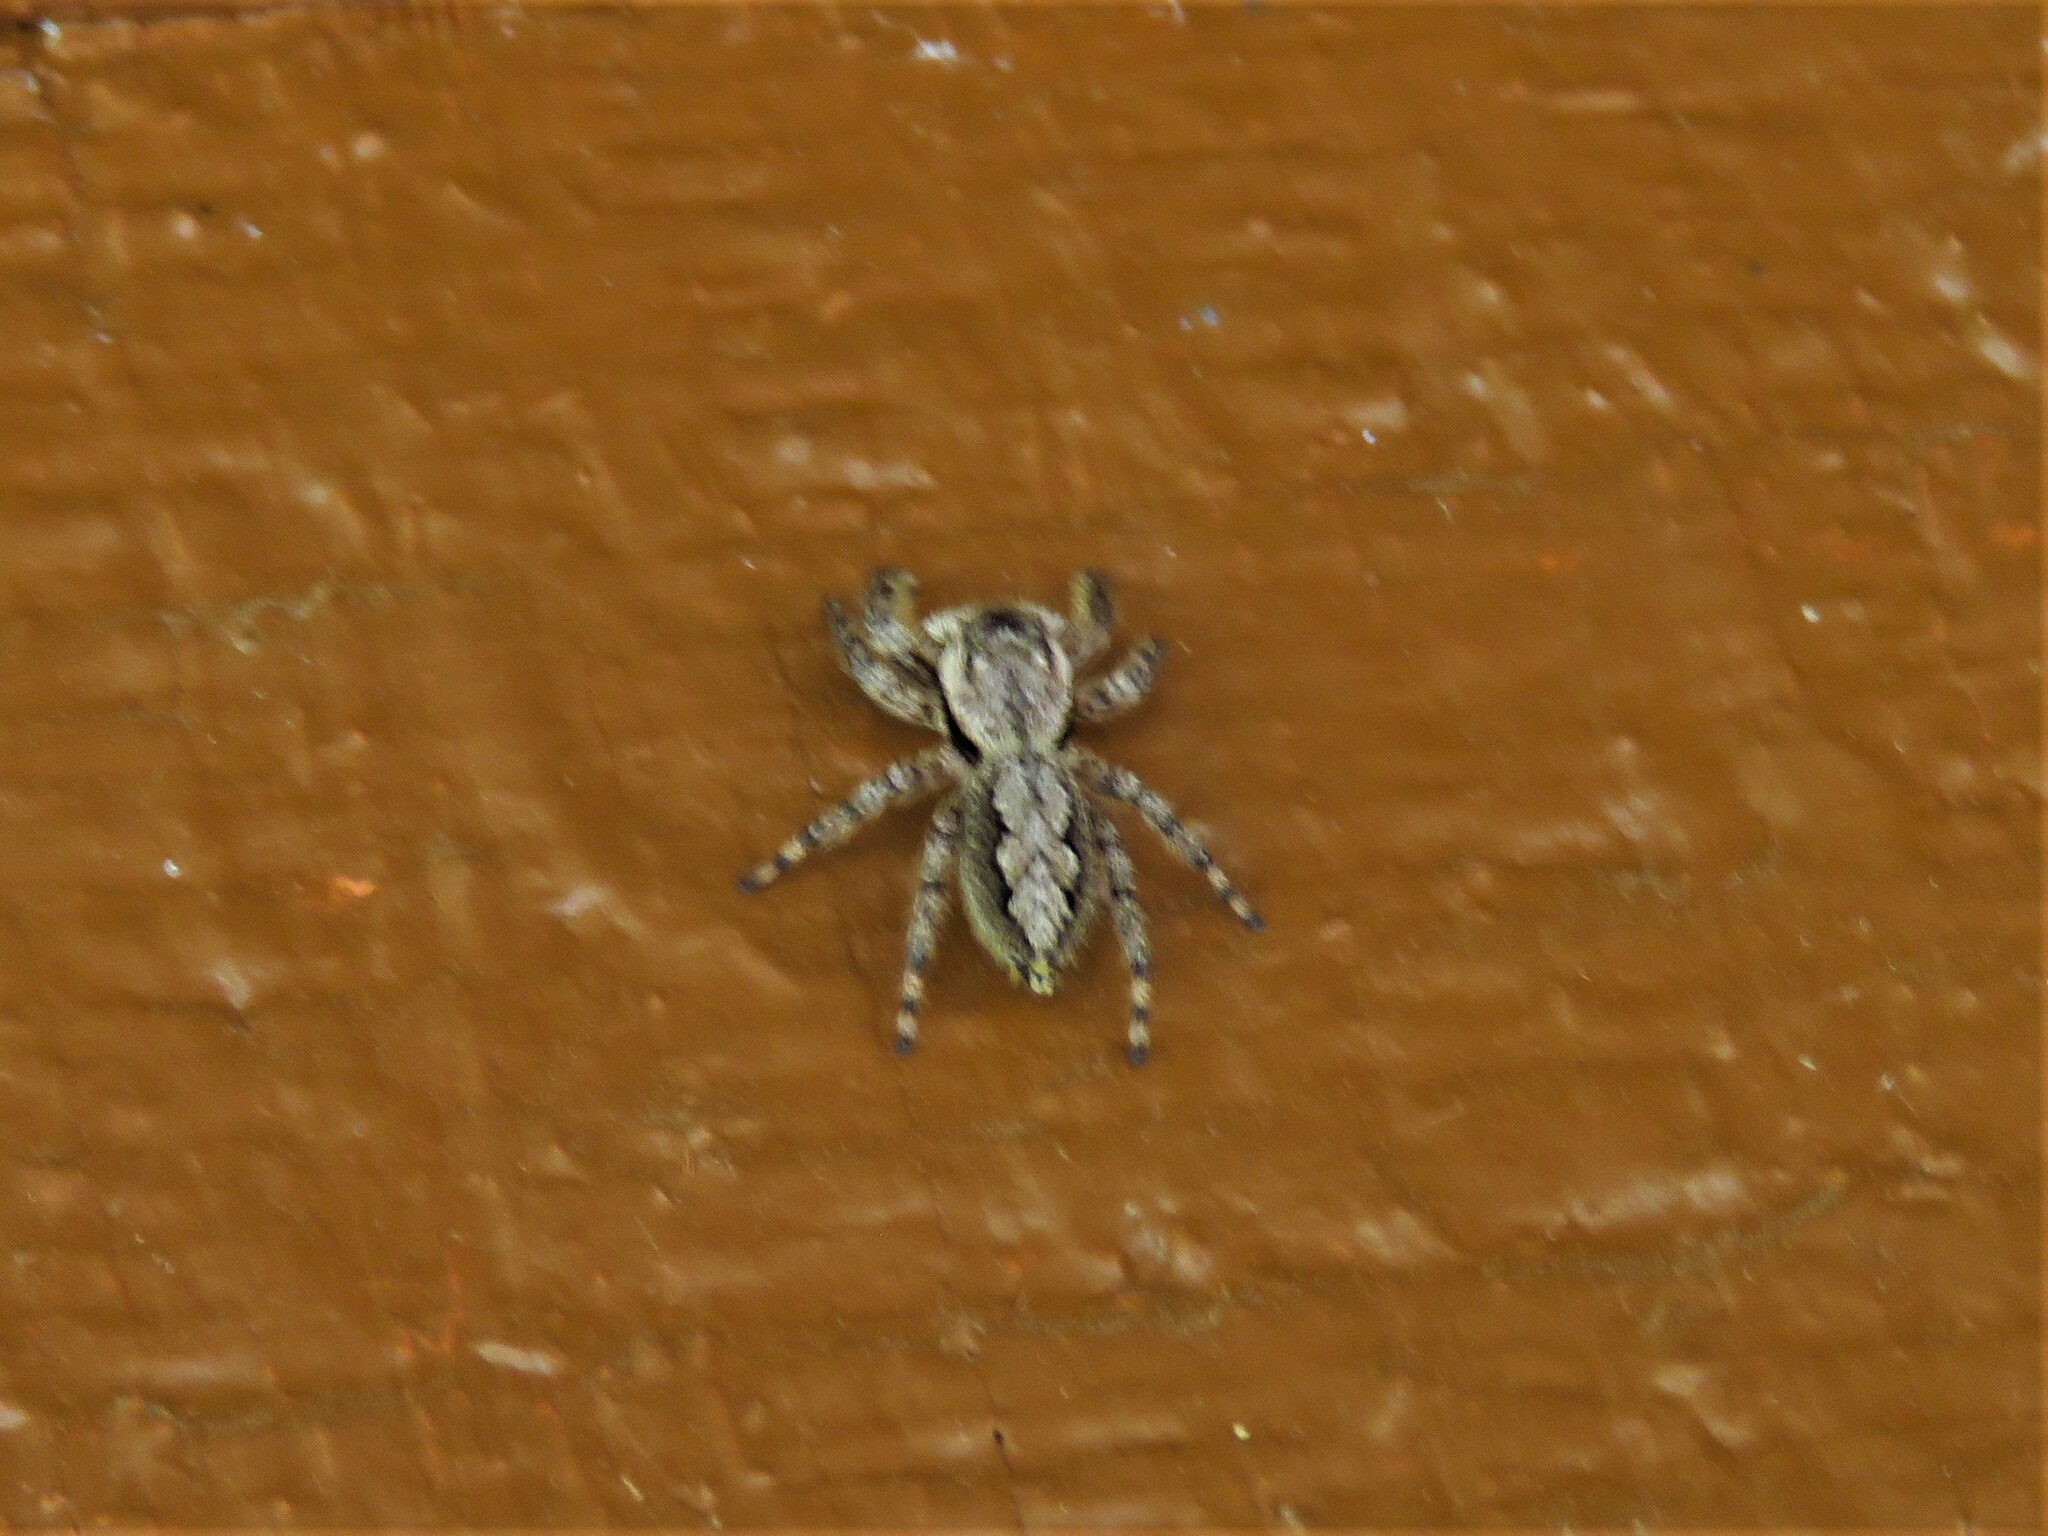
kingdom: Animalia
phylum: Arthropoda
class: Arachnida
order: Araneae
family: Salticidae
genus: Platycryptus
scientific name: Platycryptus undatus
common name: Tan jumping spider
